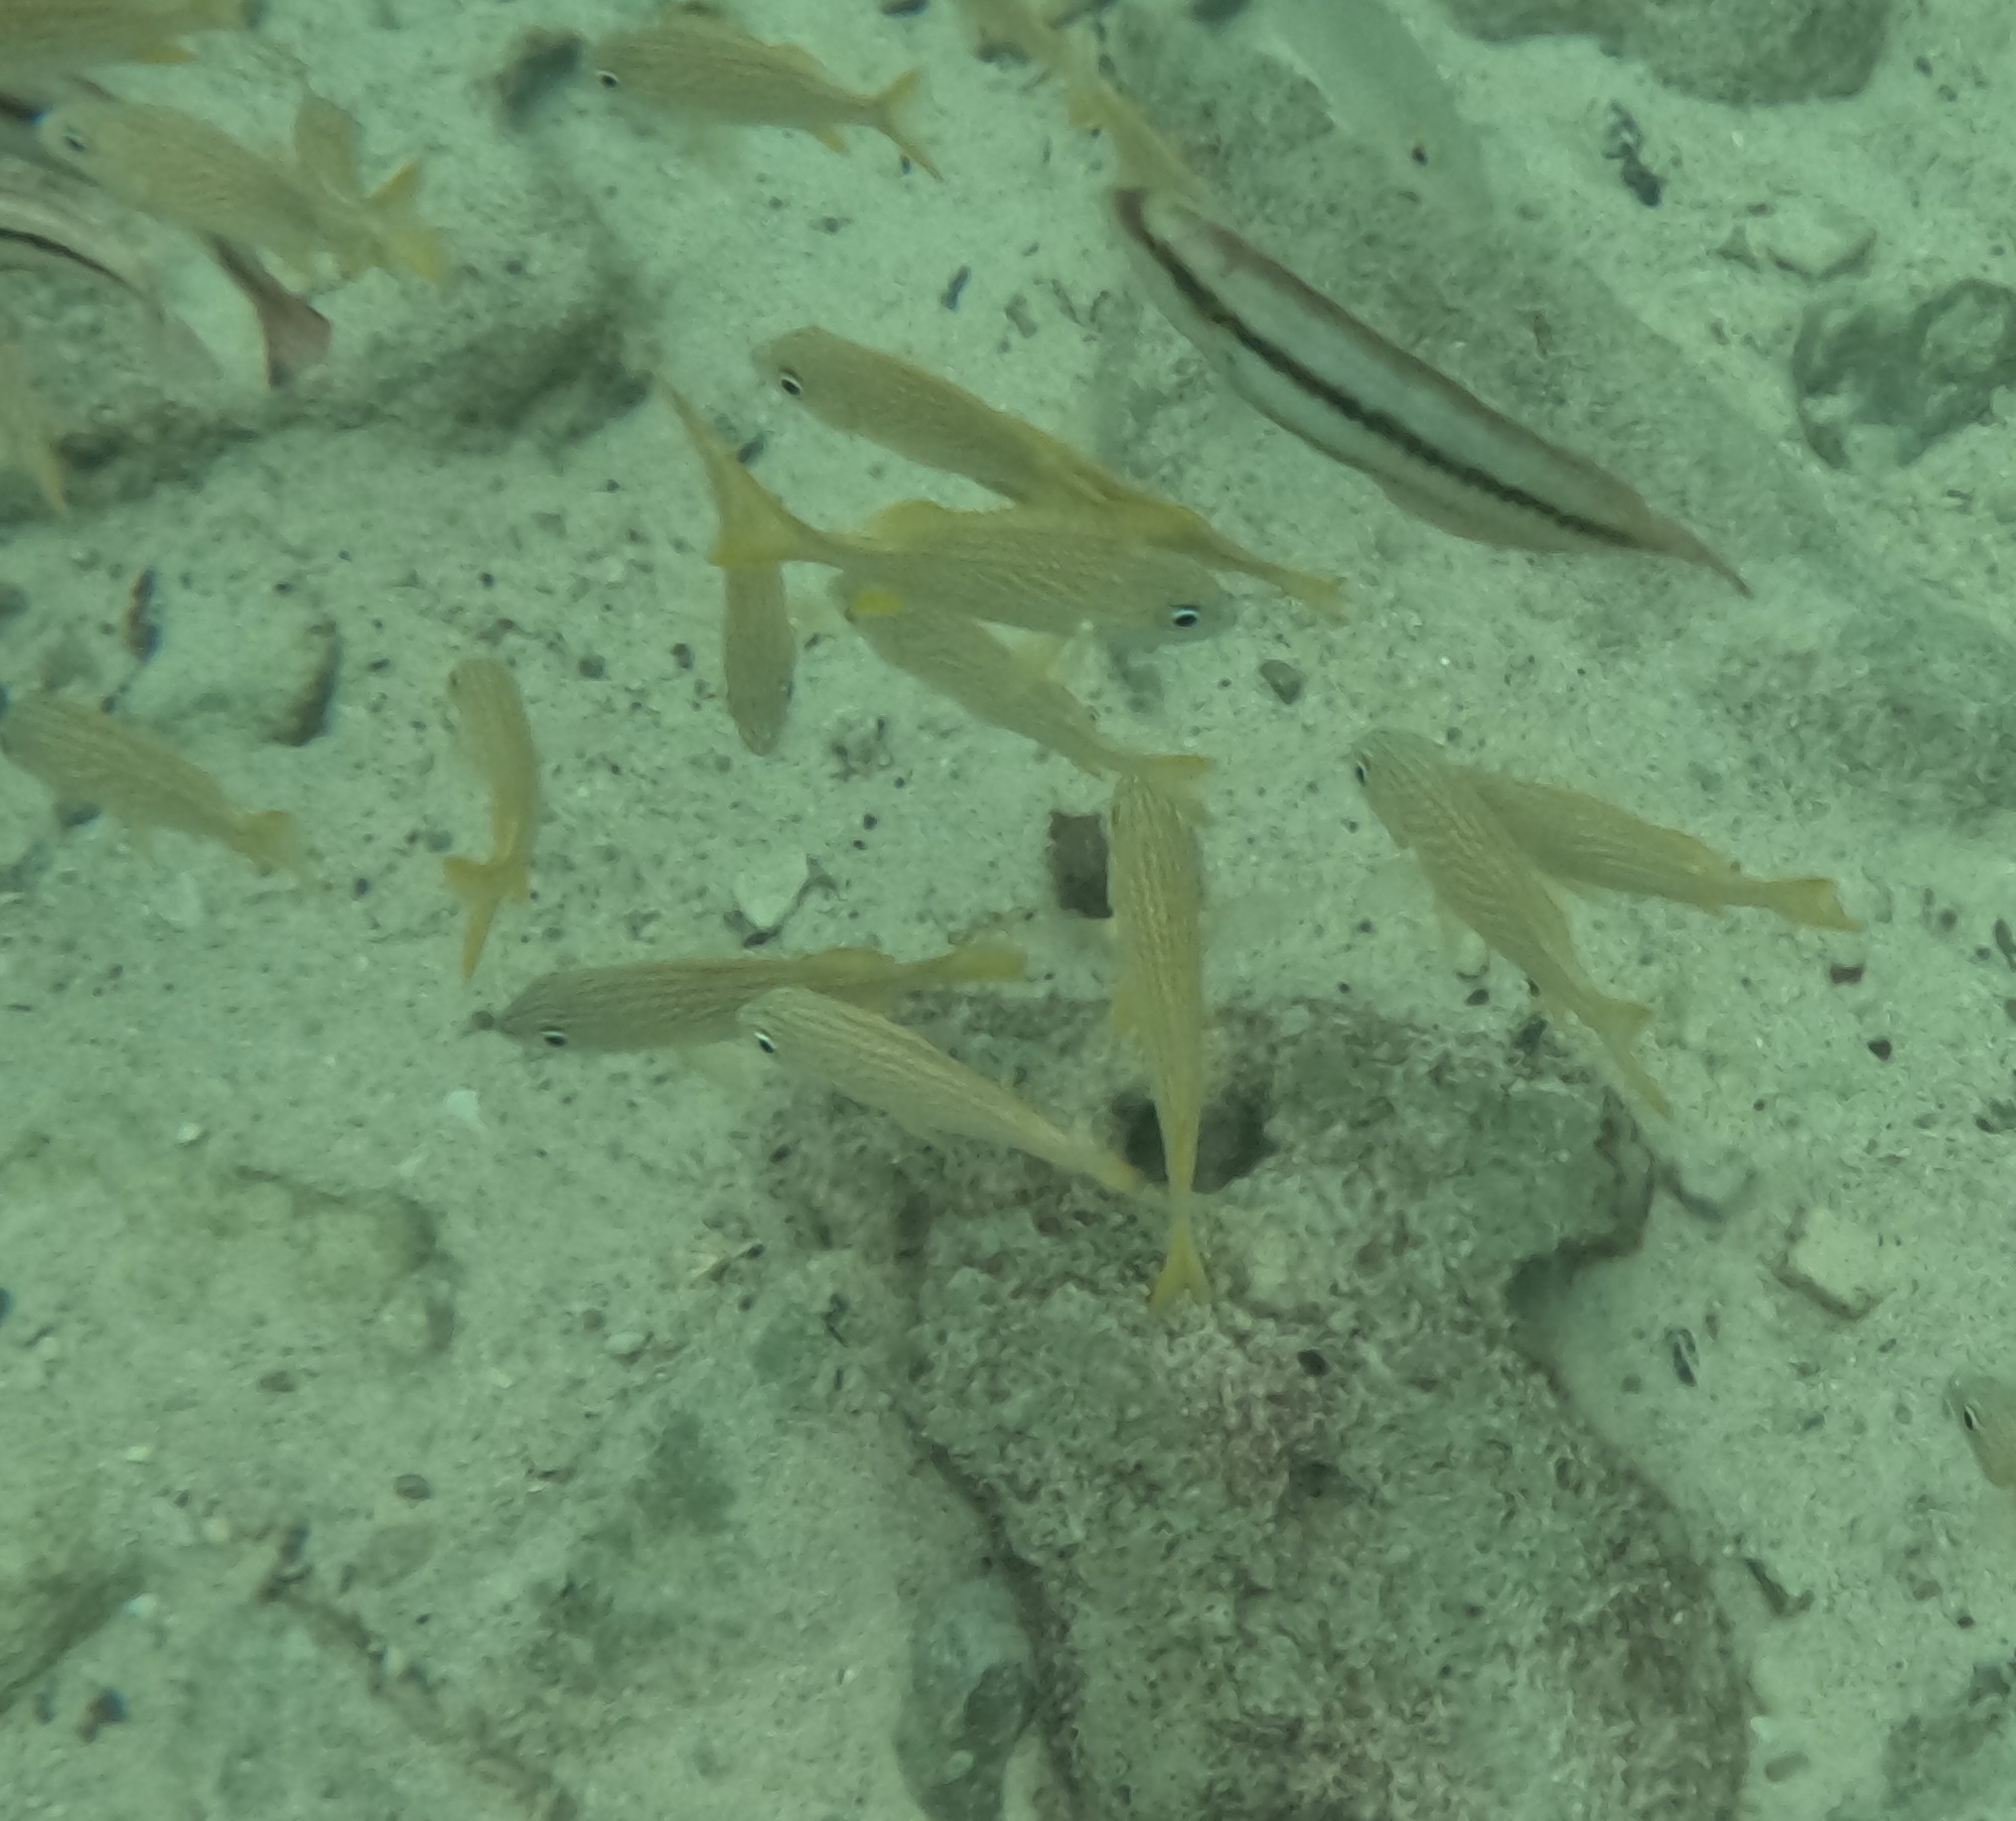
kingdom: Animalia
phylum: Chordata
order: Perciformes
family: Haemulidae
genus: Haemulon
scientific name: Haemulon flavolineatum
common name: French grunt
